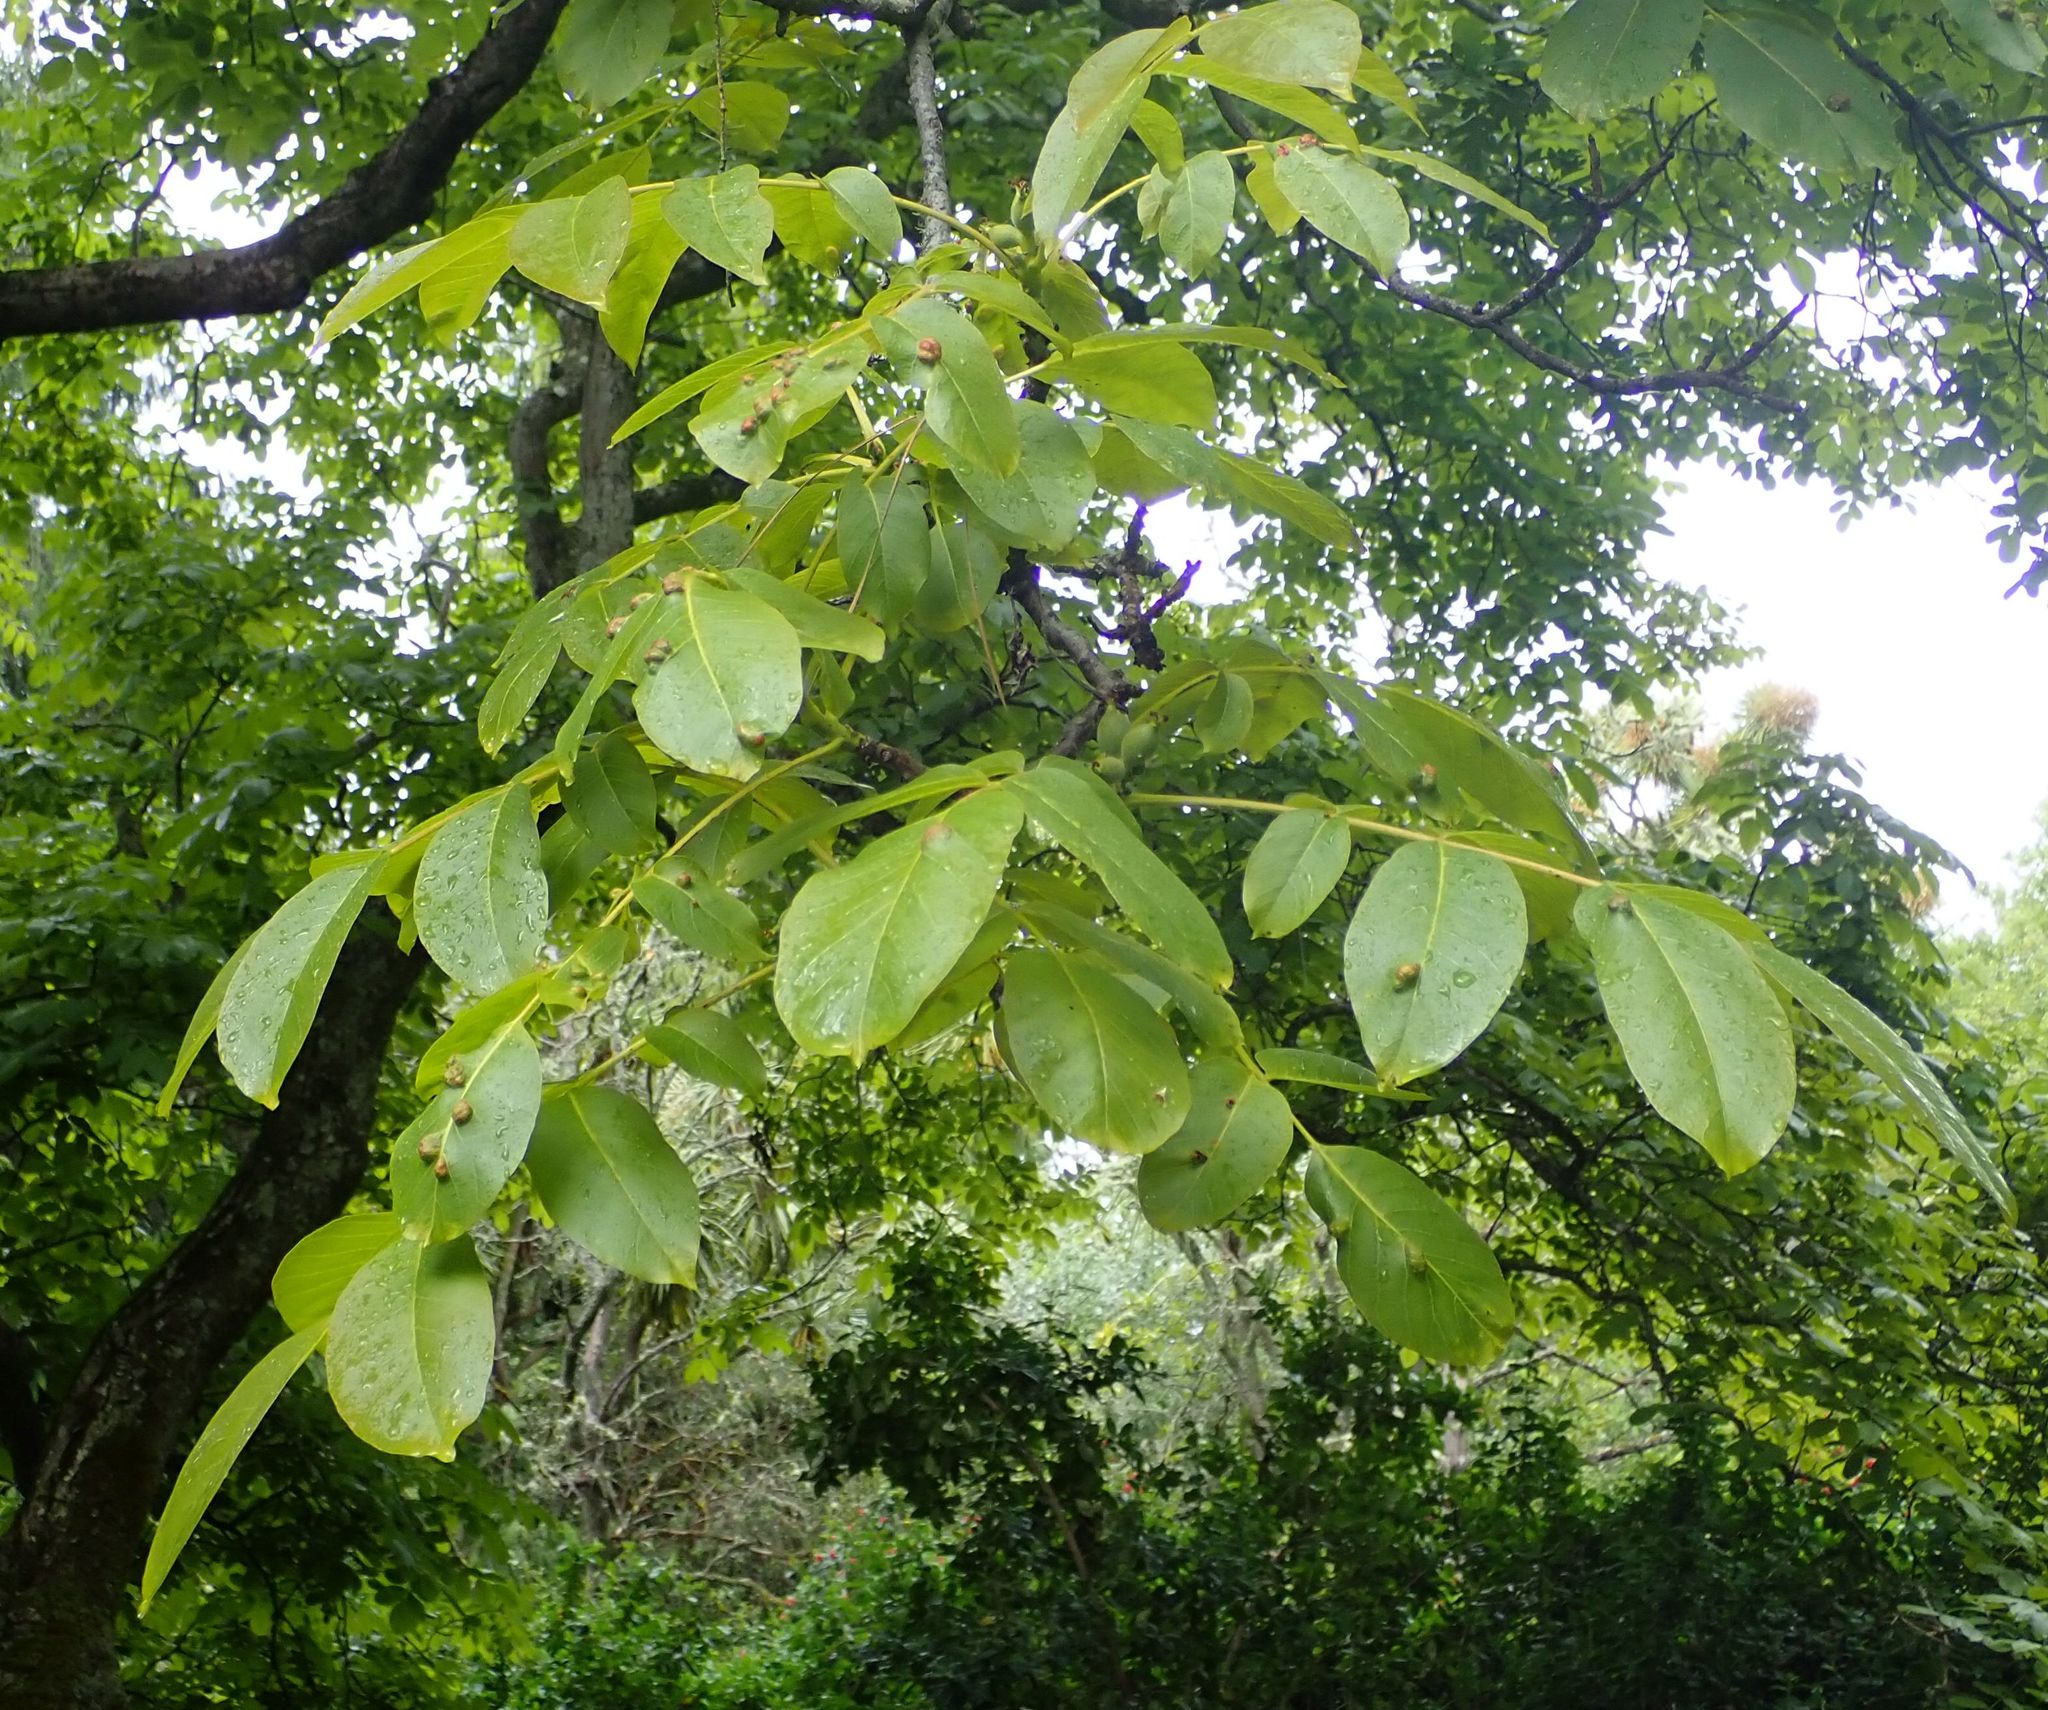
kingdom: Plantae
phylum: Tracheophyta
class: Magnoliopsida
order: Fagales
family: Juglandaceae
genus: Juglans
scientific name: Juglans regia
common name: Walnut
